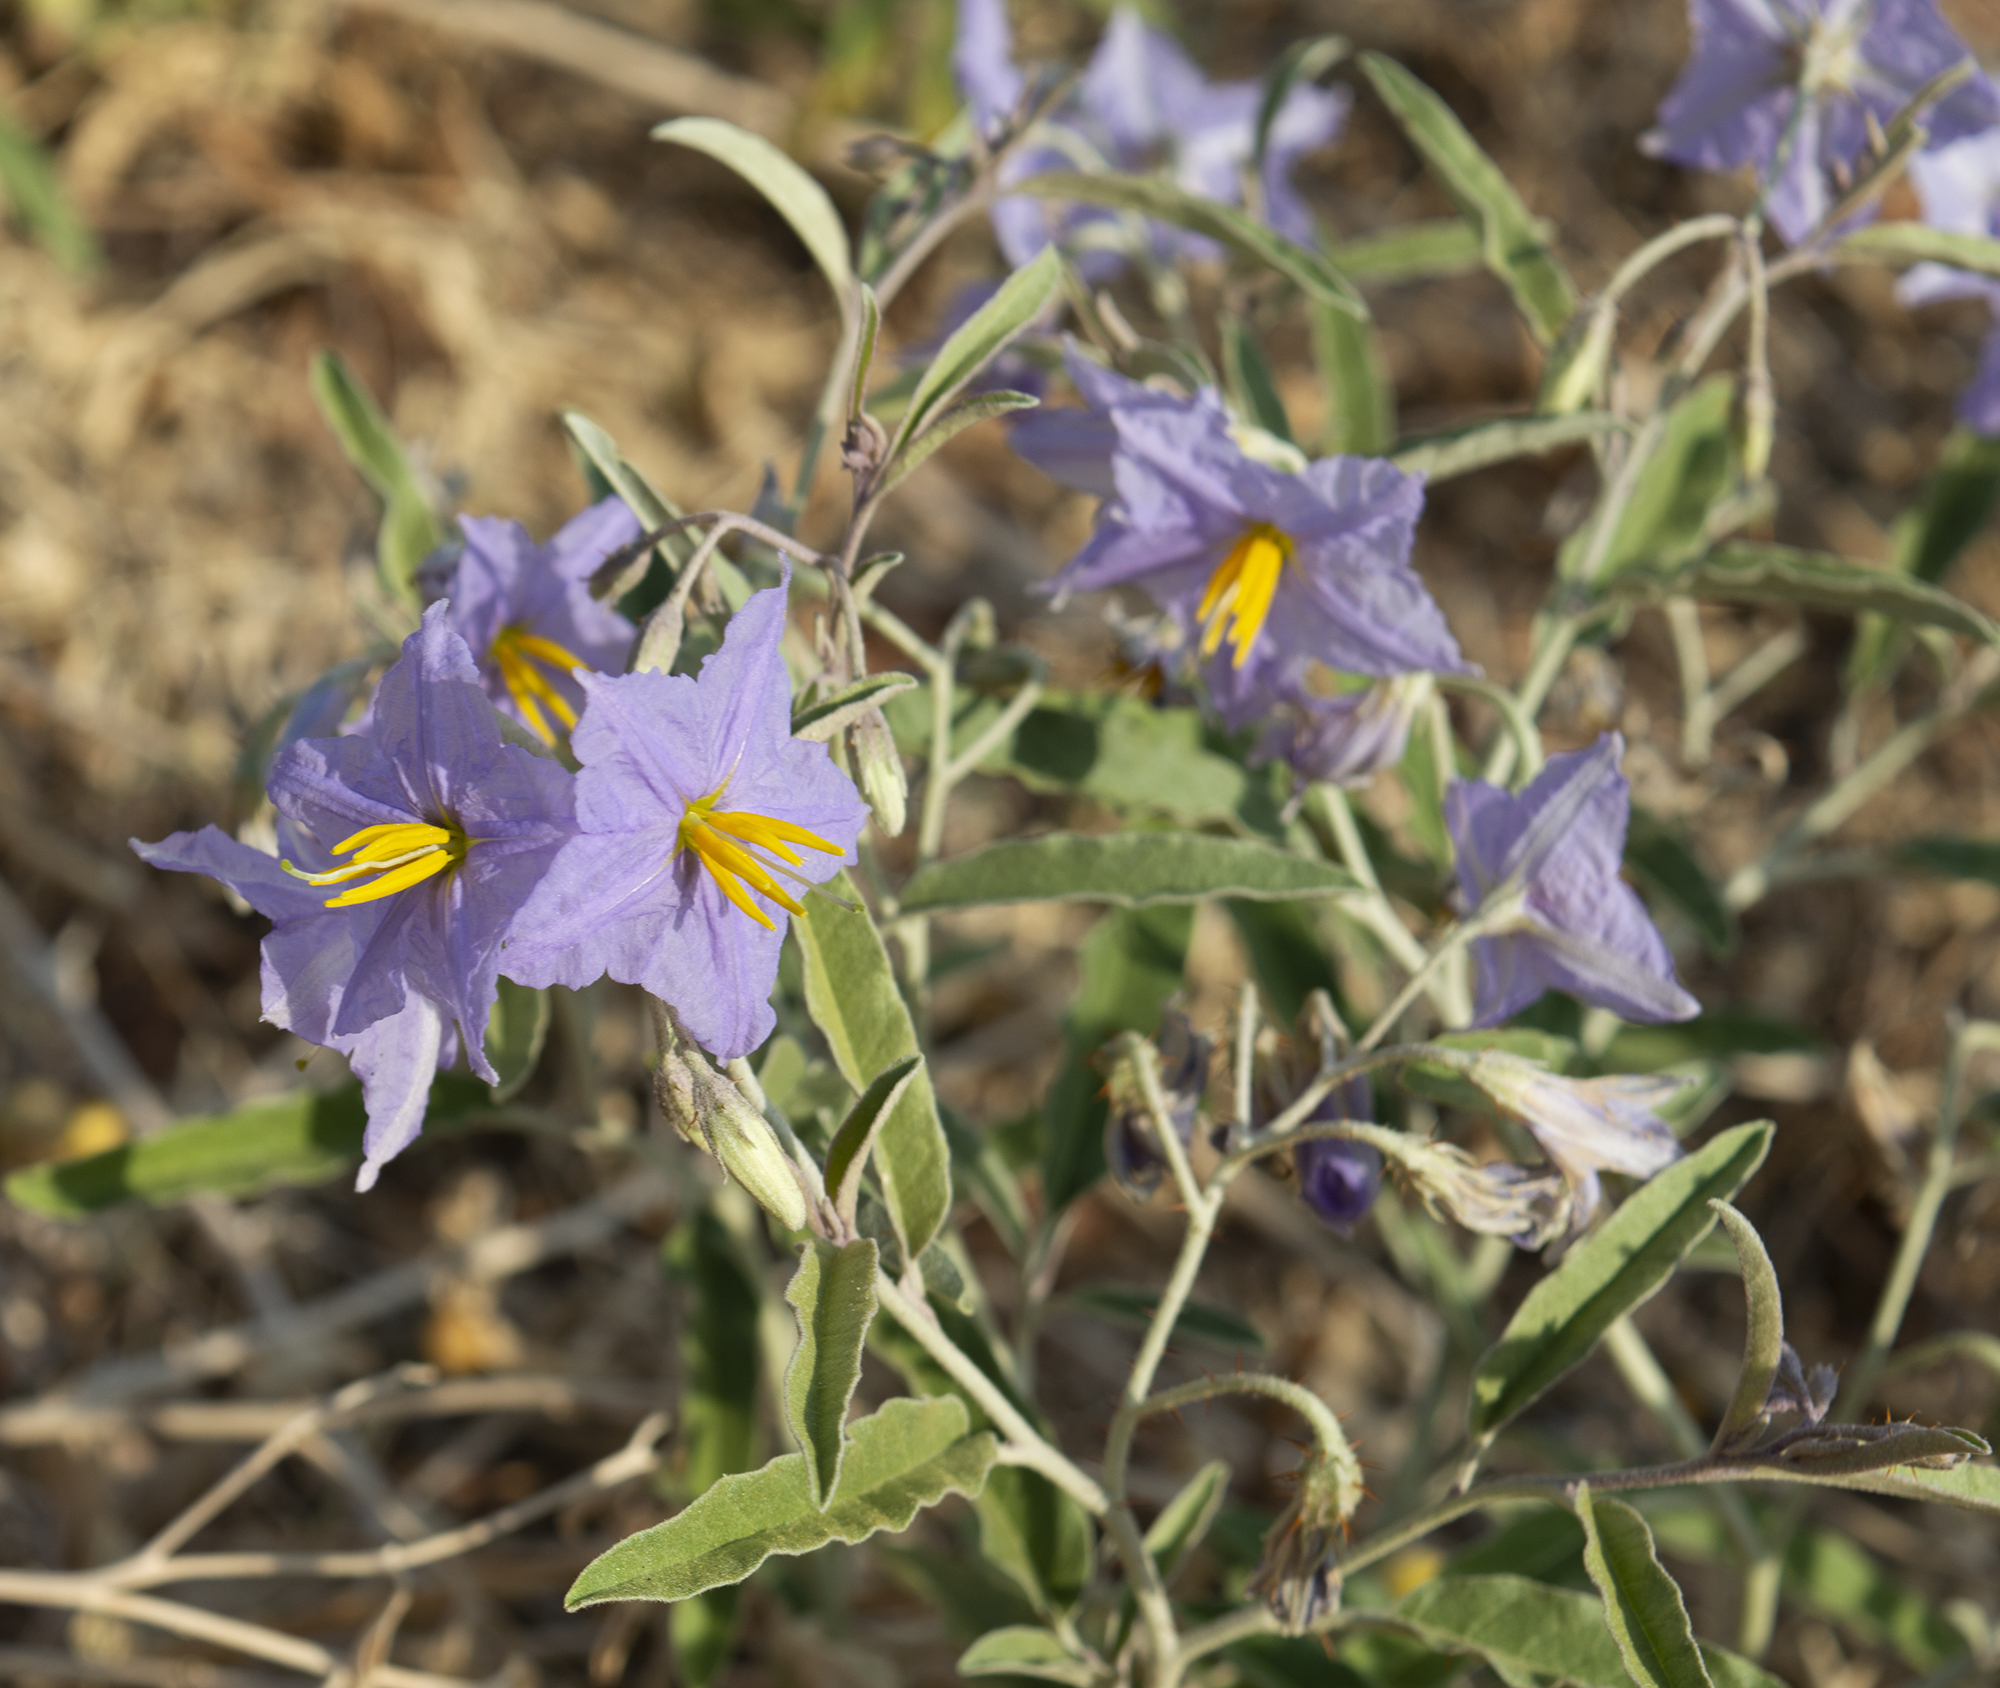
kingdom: Plantae
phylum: Tracheophyta
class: Magnoliopsida
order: Solanales
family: Solanaceae
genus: Solanum
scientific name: Solanum elaeagnifolium
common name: Silverleaf nightshade
